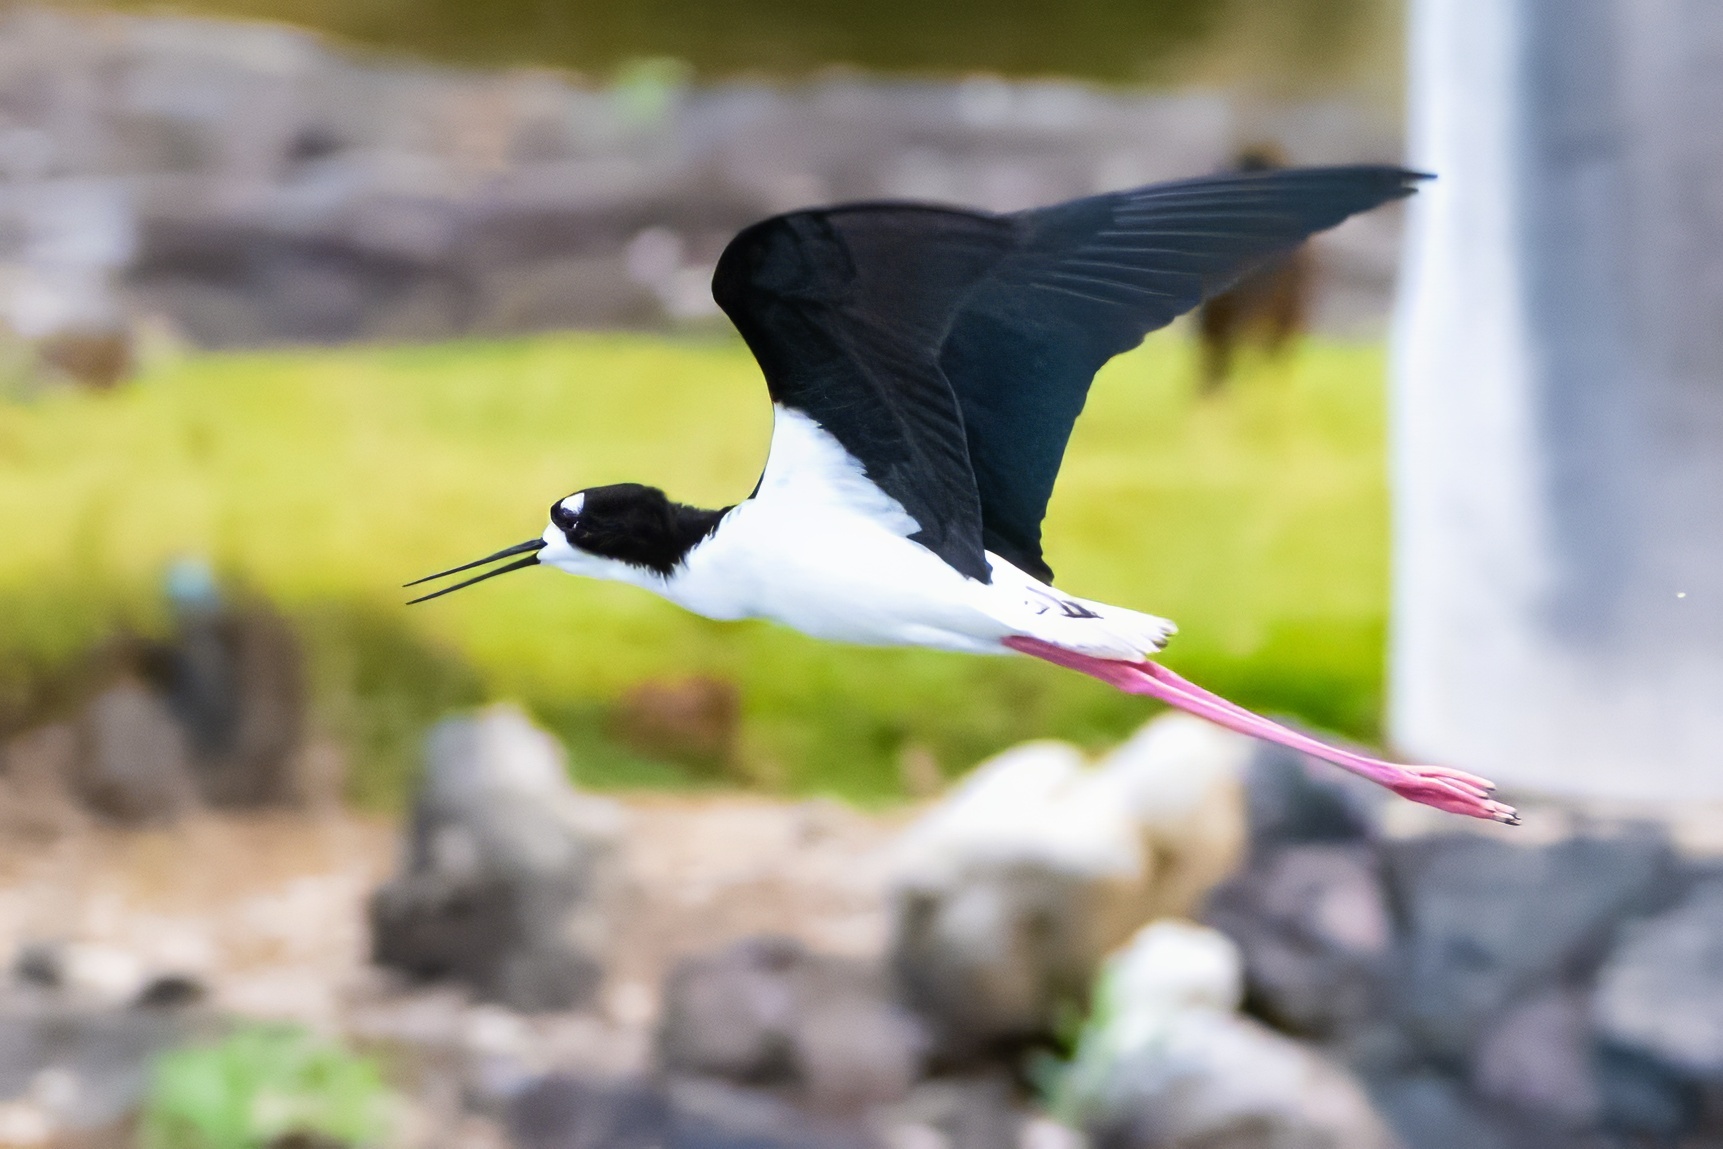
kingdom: Animalia
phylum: Chordata
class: Aves
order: Charadriiformes
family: Recurvirostridae
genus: Himantopus
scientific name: Himantopus mexicanus
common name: Black-necked stilt
